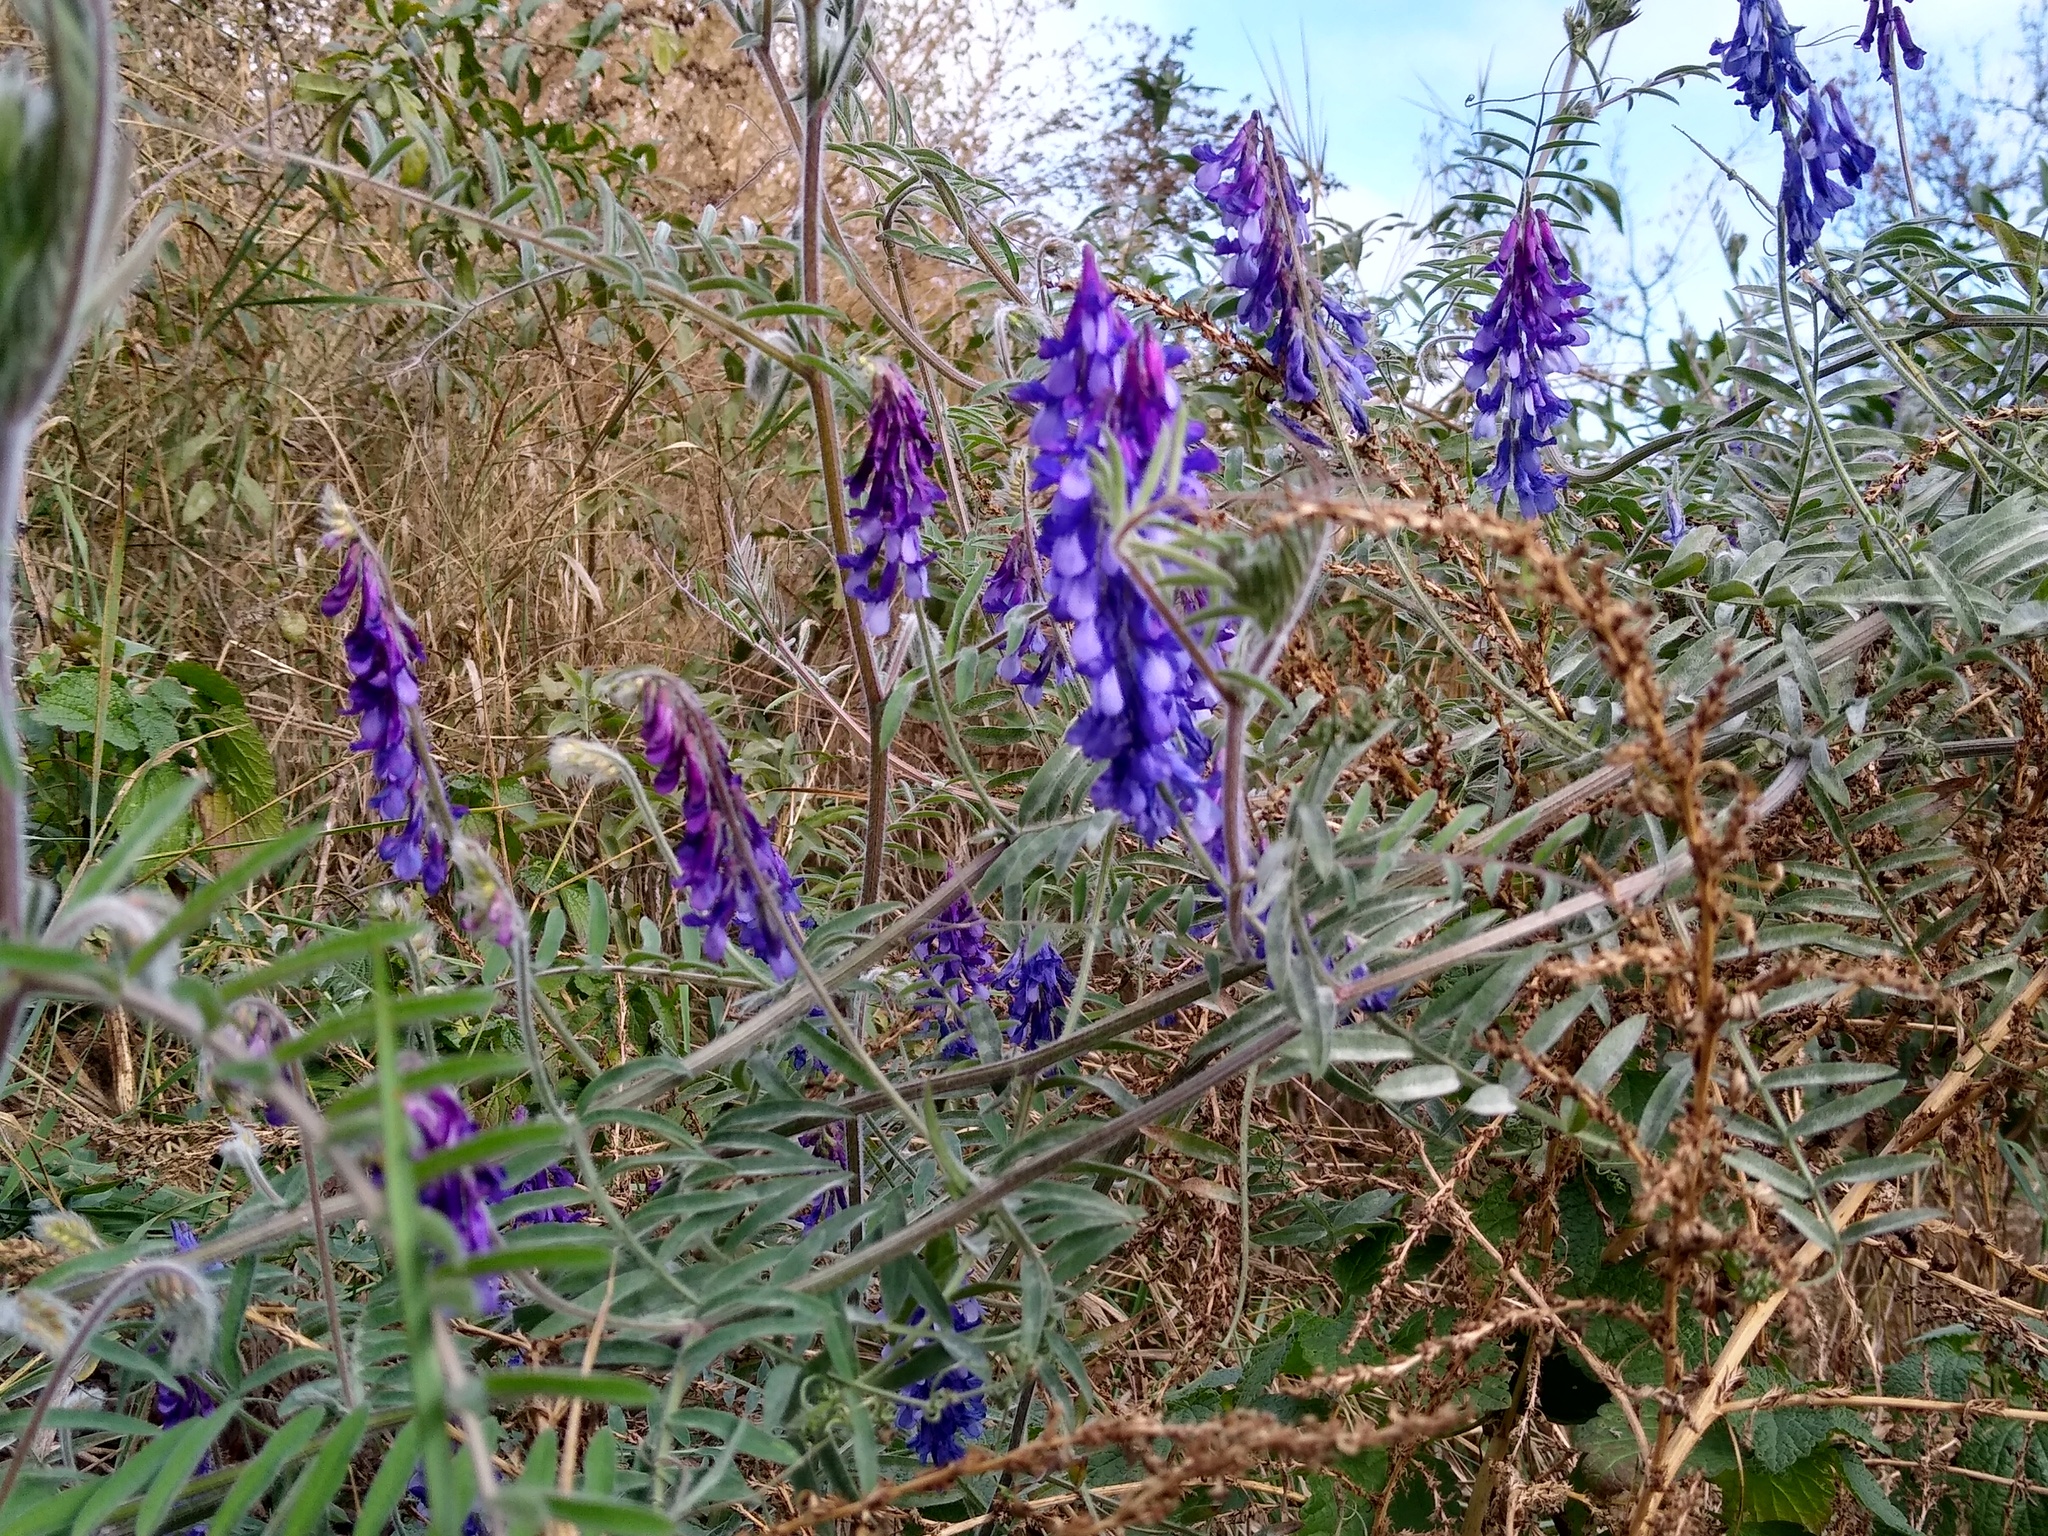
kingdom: Plantae
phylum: Tracheophyta
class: Magnoliopsida
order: Fabales
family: Fabaceae
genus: Vicia
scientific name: Vicia villosa
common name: Fodder vetch
